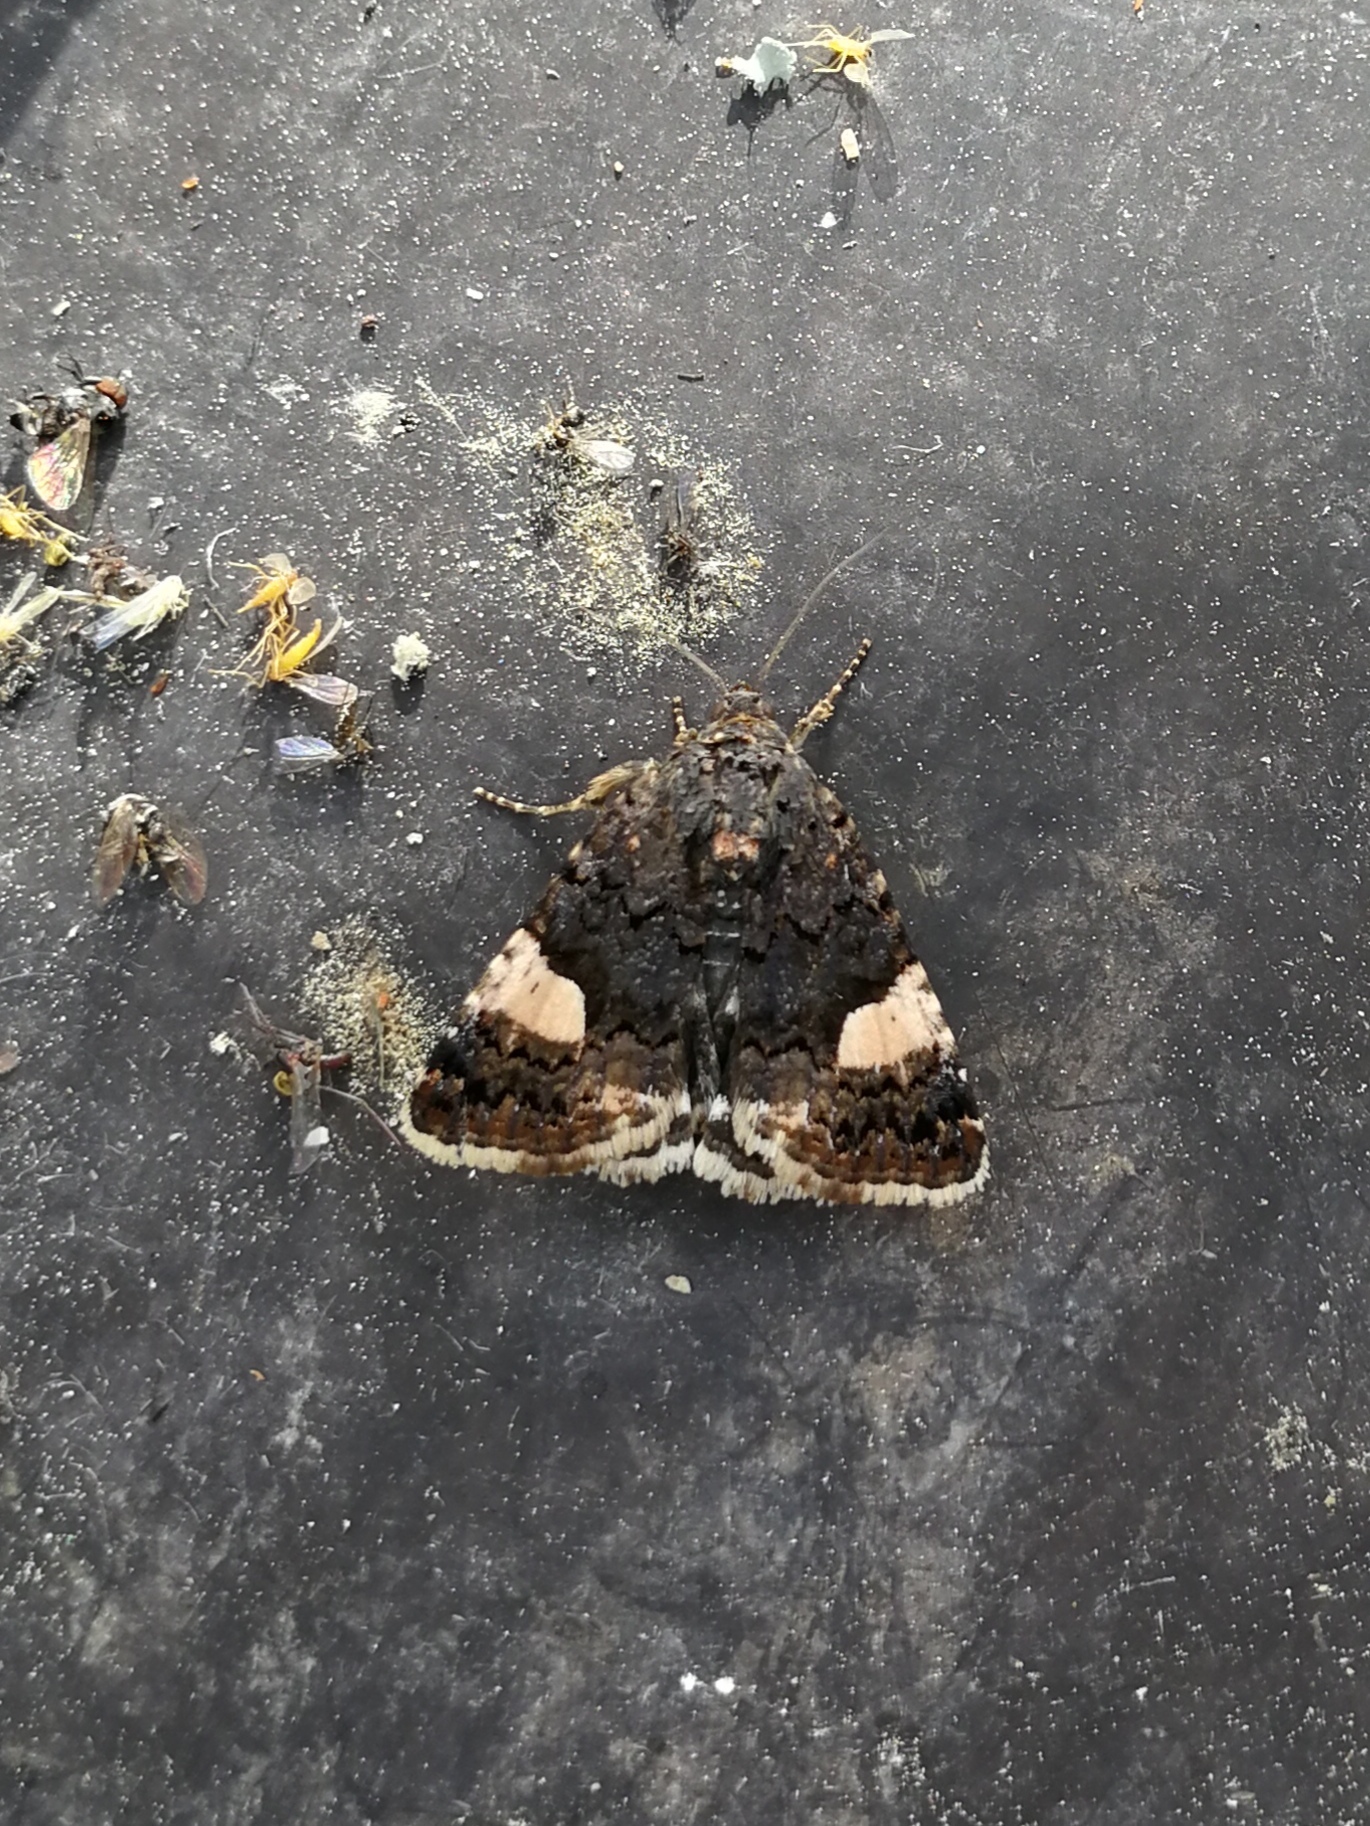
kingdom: Animalia
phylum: Arthropoda
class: Insecta
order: Lepidoptera
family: Erebidae
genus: Tyta
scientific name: Tyta luctuosa
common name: Four-spotted
